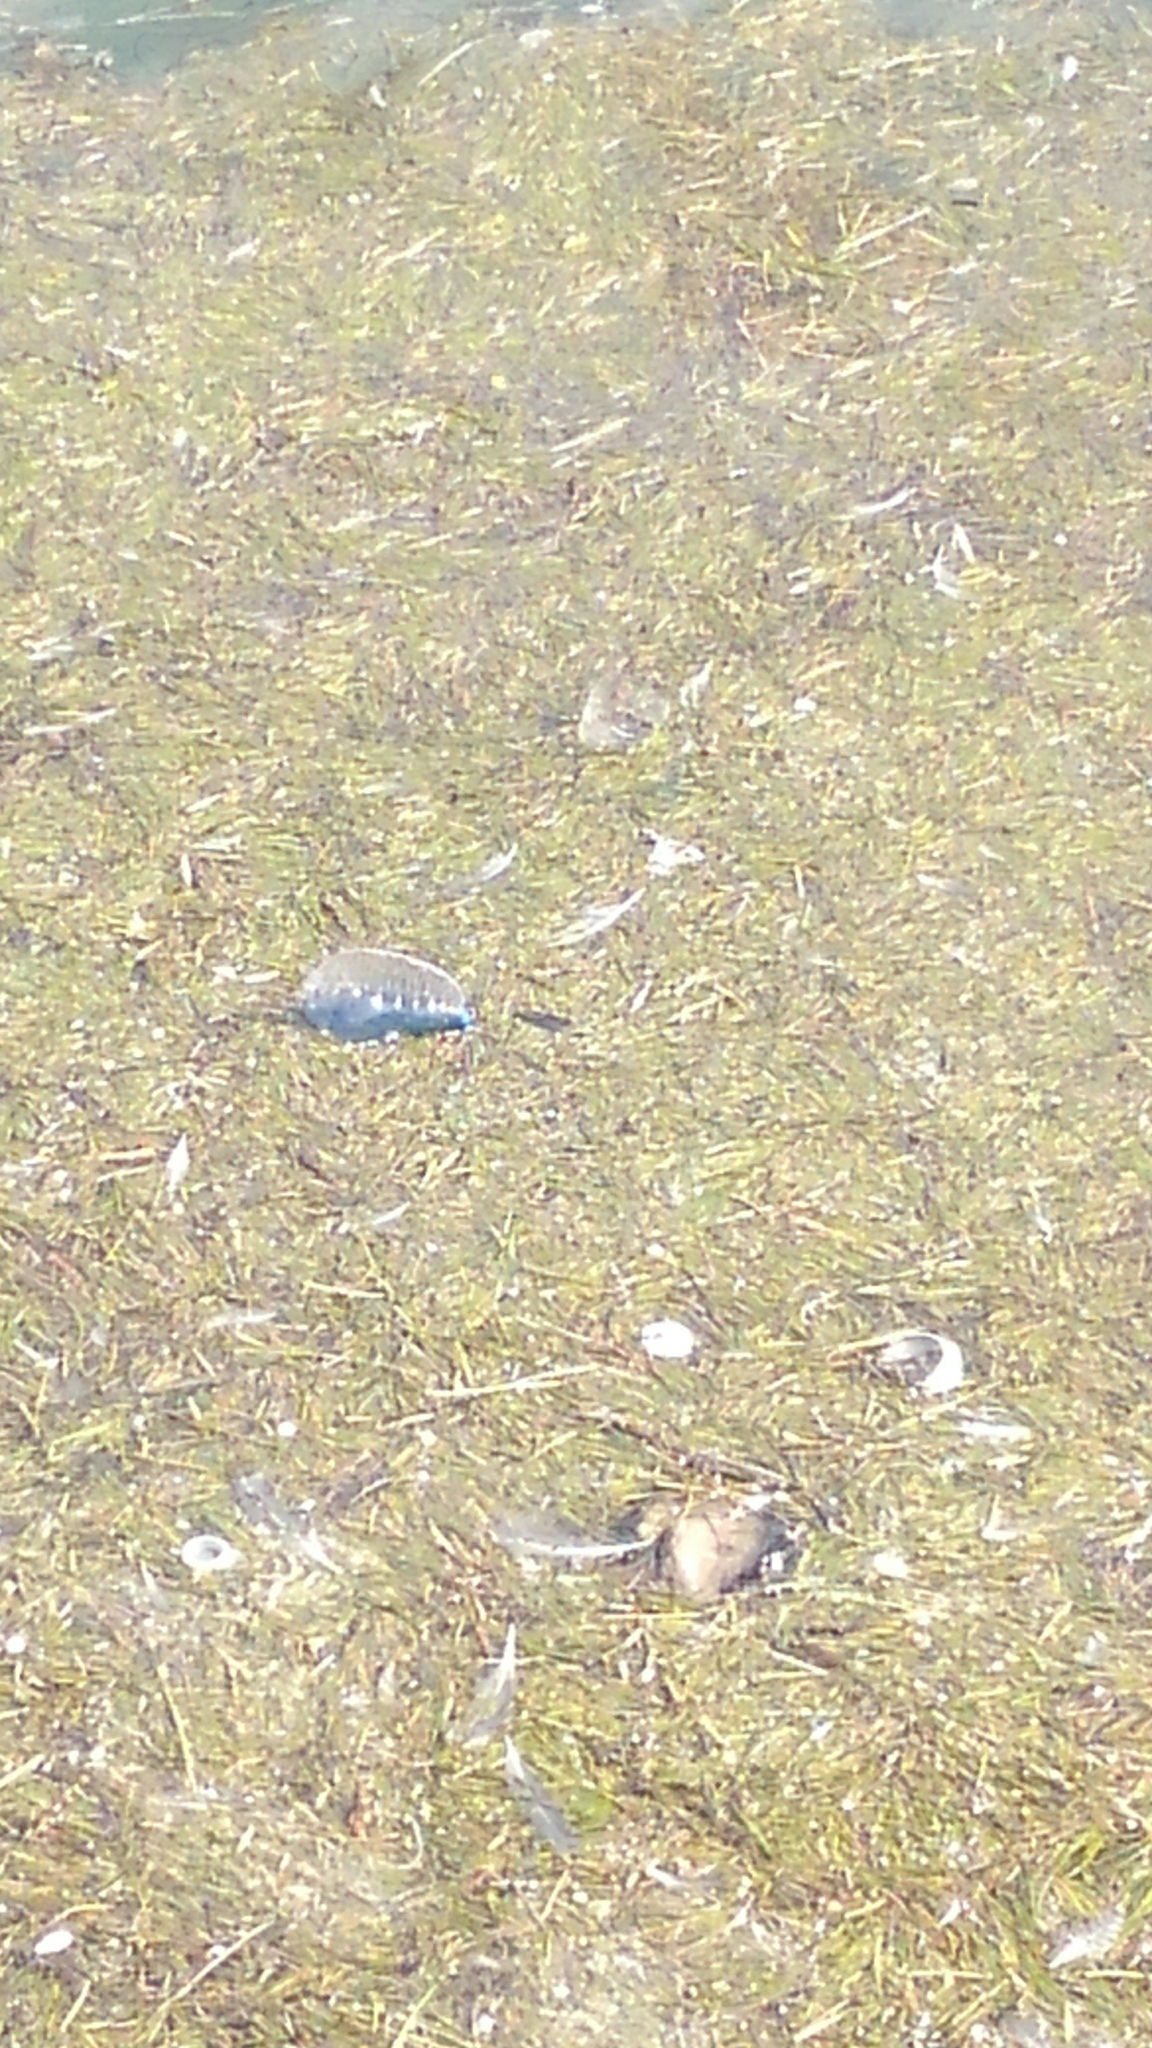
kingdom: Animalia
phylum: Cnidaria
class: Hydrozoa
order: Siphonophorae
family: Physaliidae
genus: Physalia
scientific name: Physalia physalis
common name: Portuguese man-of-war
